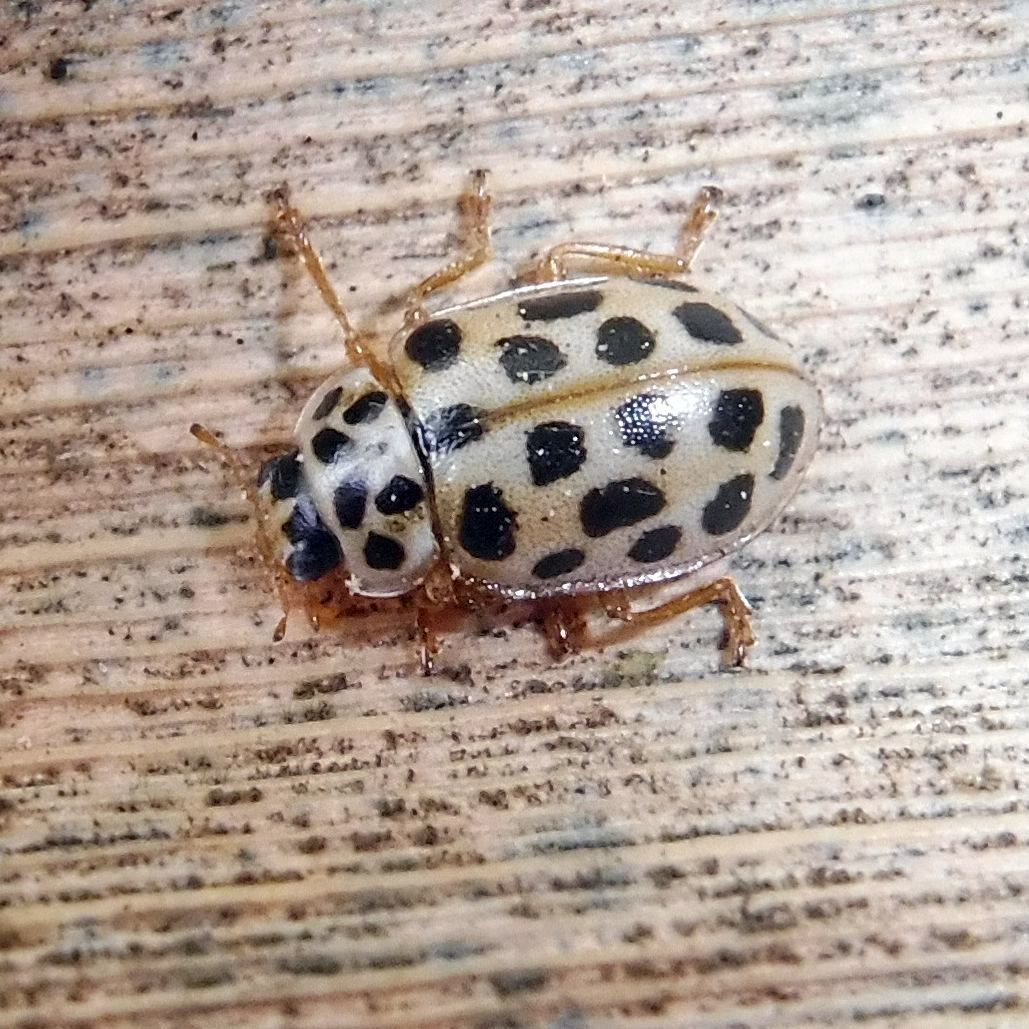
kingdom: Animalia
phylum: Arthropoda
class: Insecta
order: Coleoptera
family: Coccinellidae
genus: Anisosticta
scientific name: Anisosticta novemdecimpunctata
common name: Water ladybird
